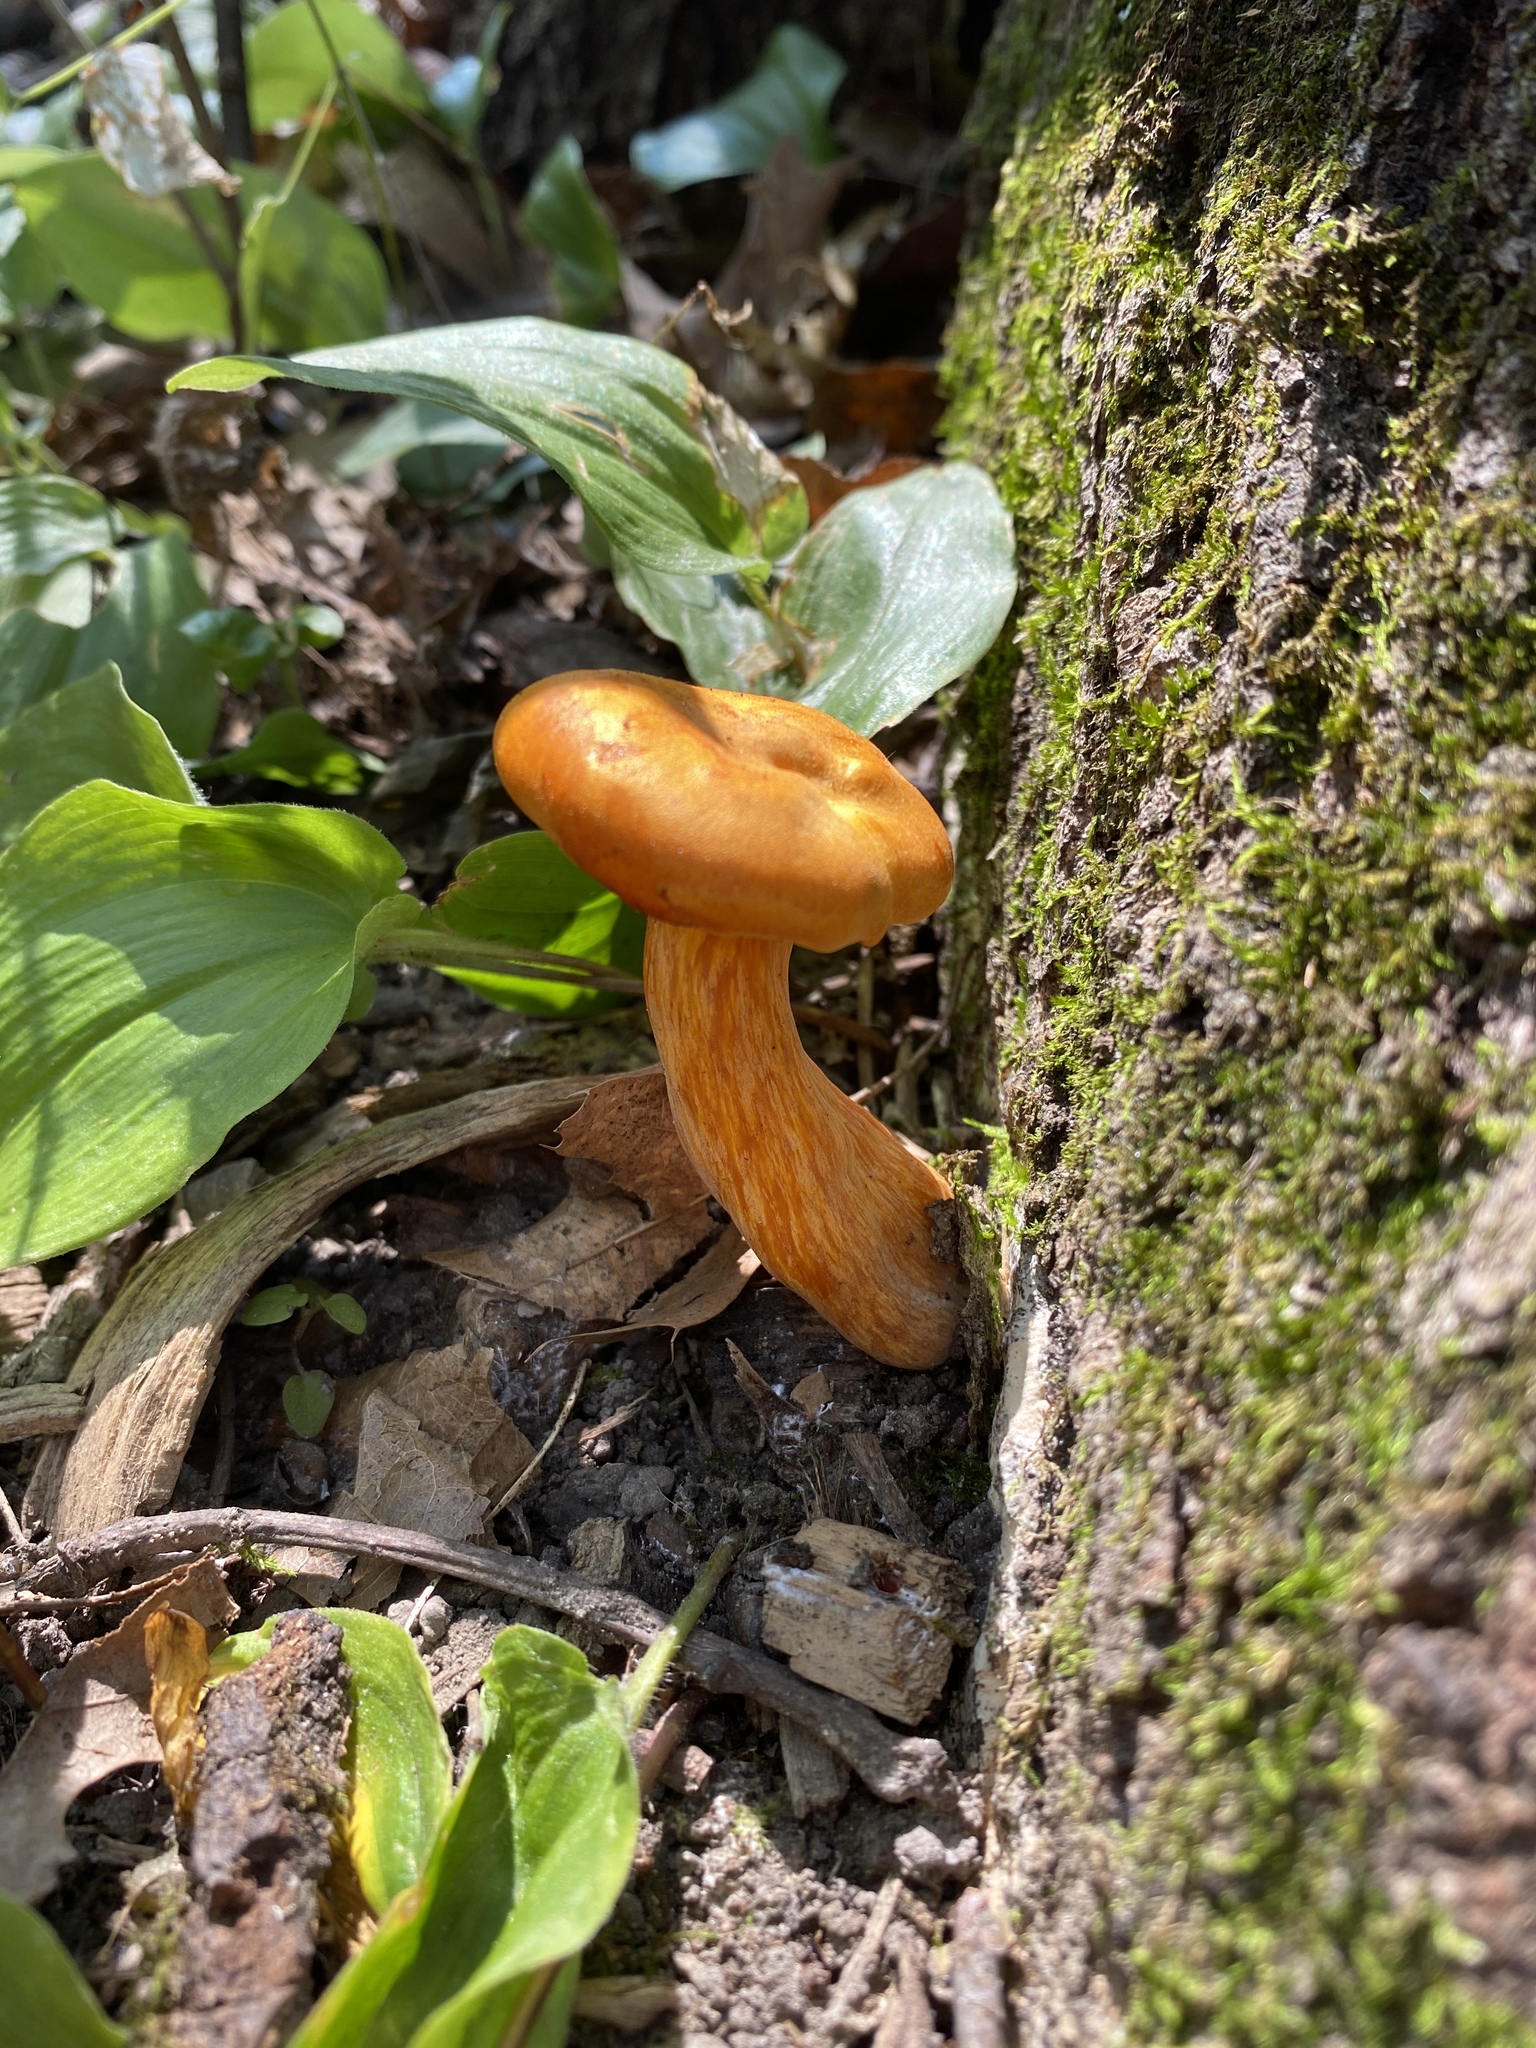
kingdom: Fungi
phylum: Basidiomycota
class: Agaricomycetes
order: Agaricales
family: Omphalotaceae
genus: Omphalotus
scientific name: Omphalotus illudens
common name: Jack o lantern
